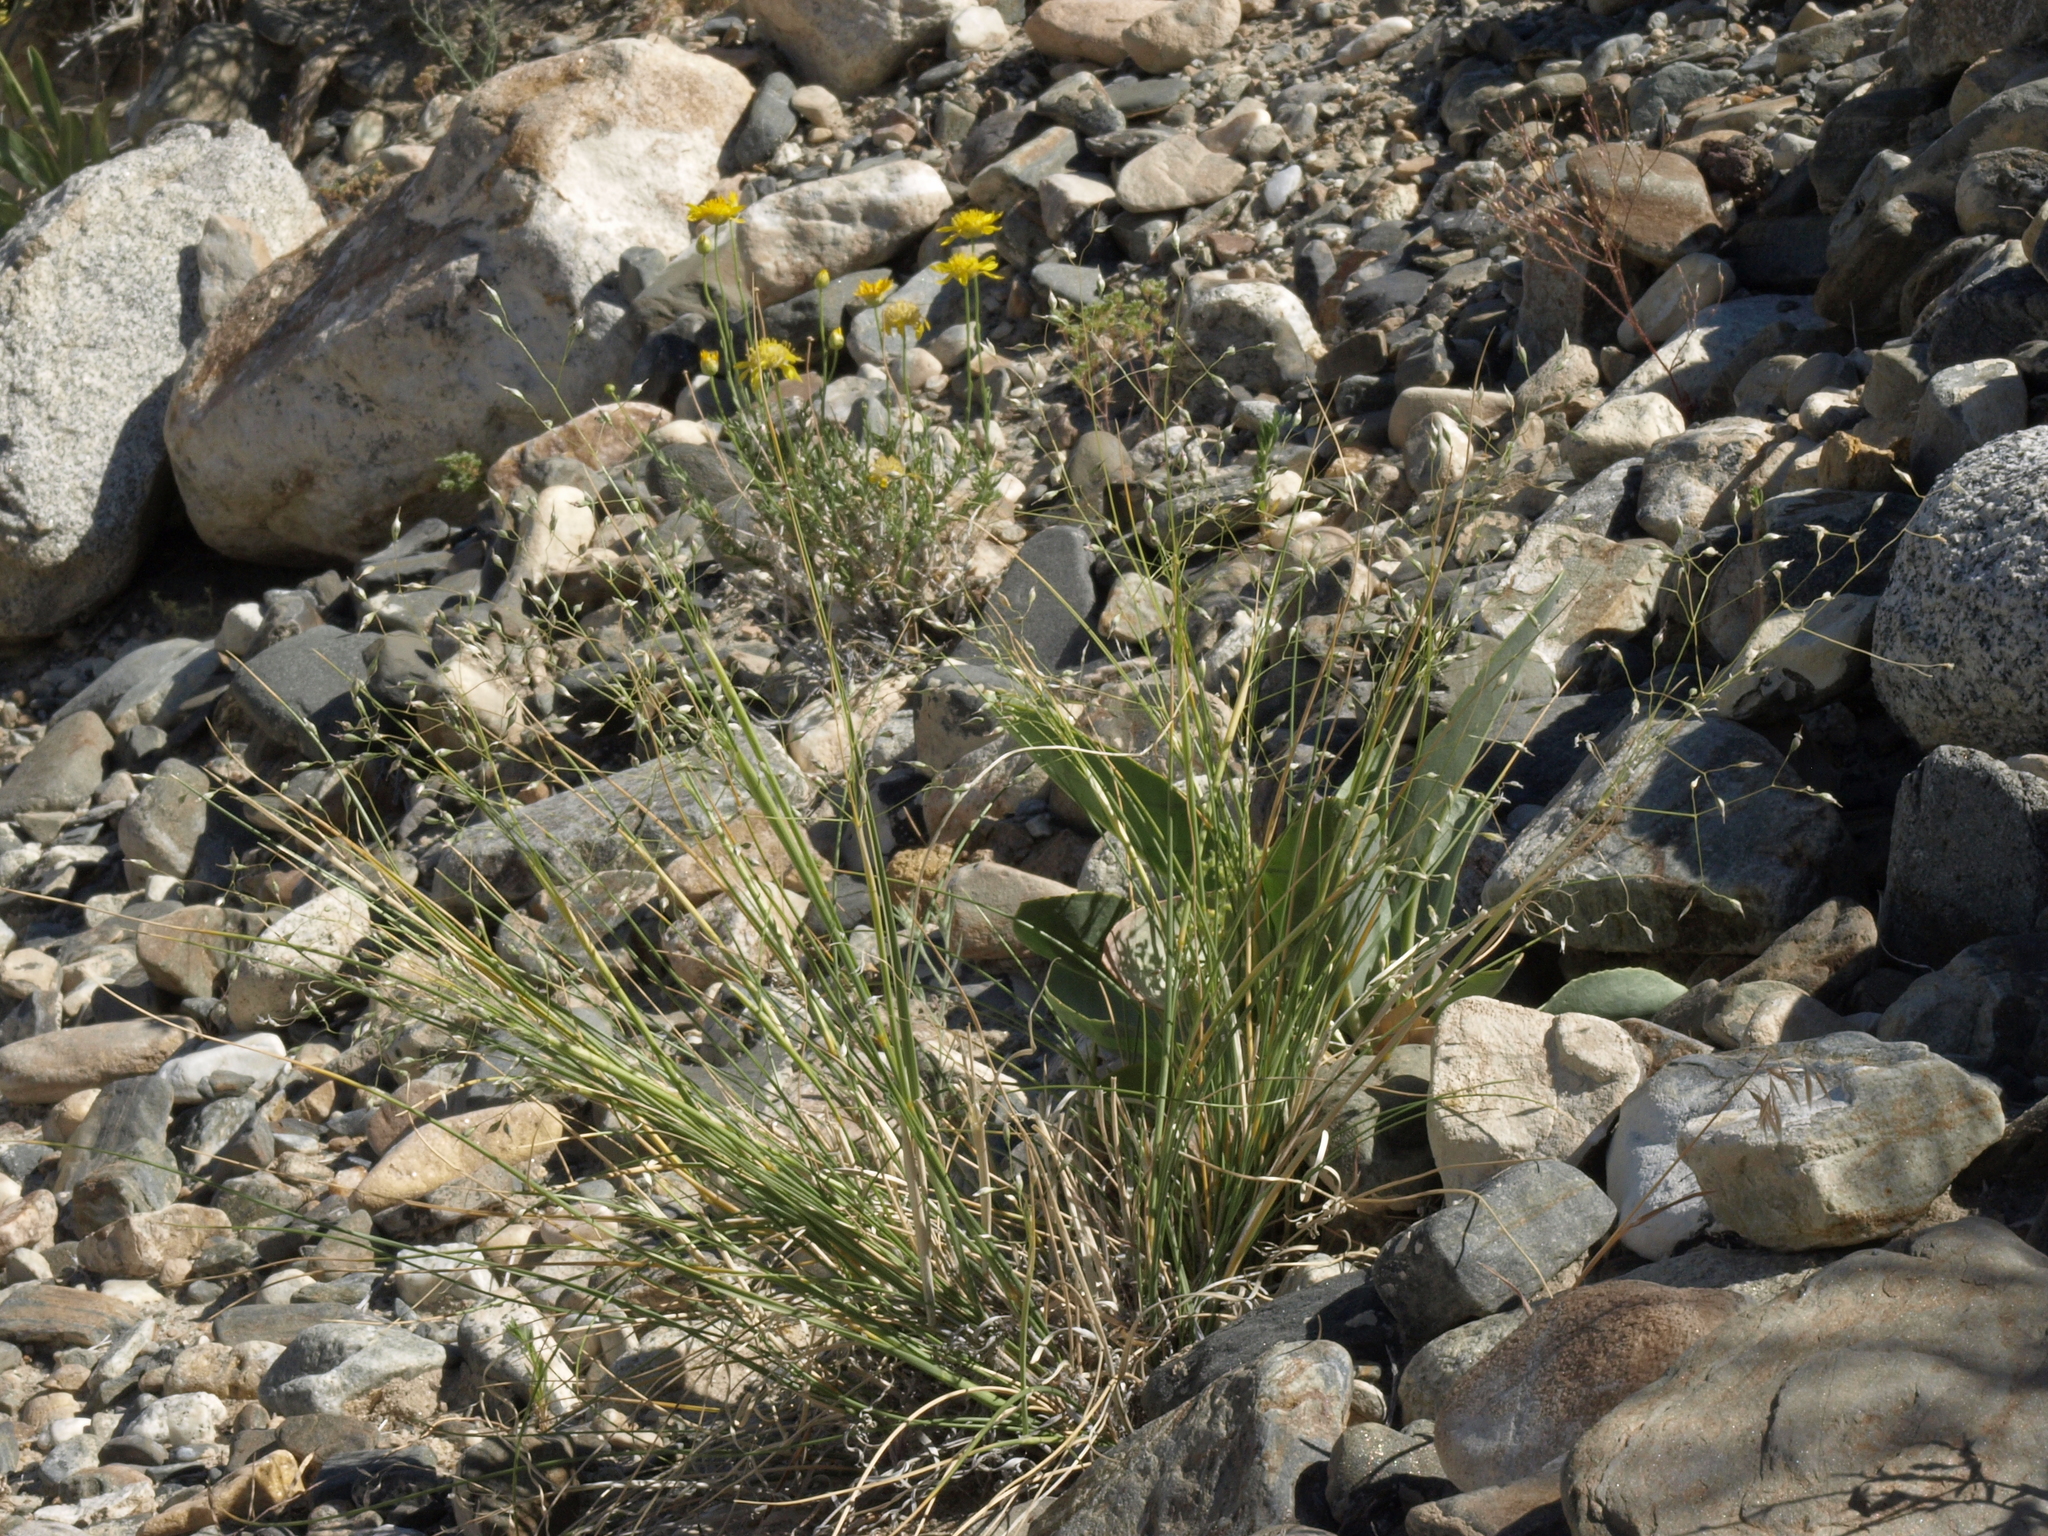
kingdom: Plantae
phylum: Tracheophyta
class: Liliopsida
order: Poales
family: Poaceae
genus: Eriocoma
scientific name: Eriocoma hymenoides
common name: Indian mountain ricegrass
